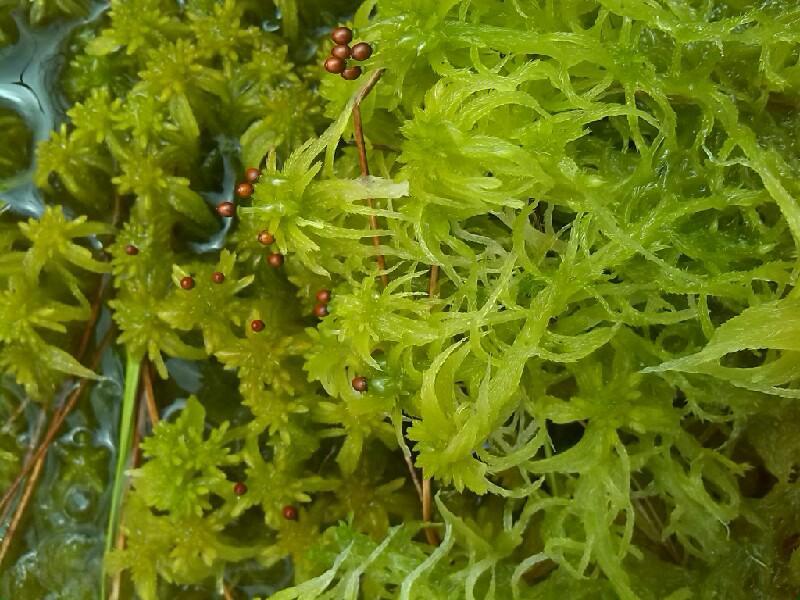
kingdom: Plantae
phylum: Bryophyta
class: Sphagnopsida
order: Sphagnales
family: Sphagnaceae
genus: Sphagnum
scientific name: Sphagnum fallax
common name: Flat-top peat moss
